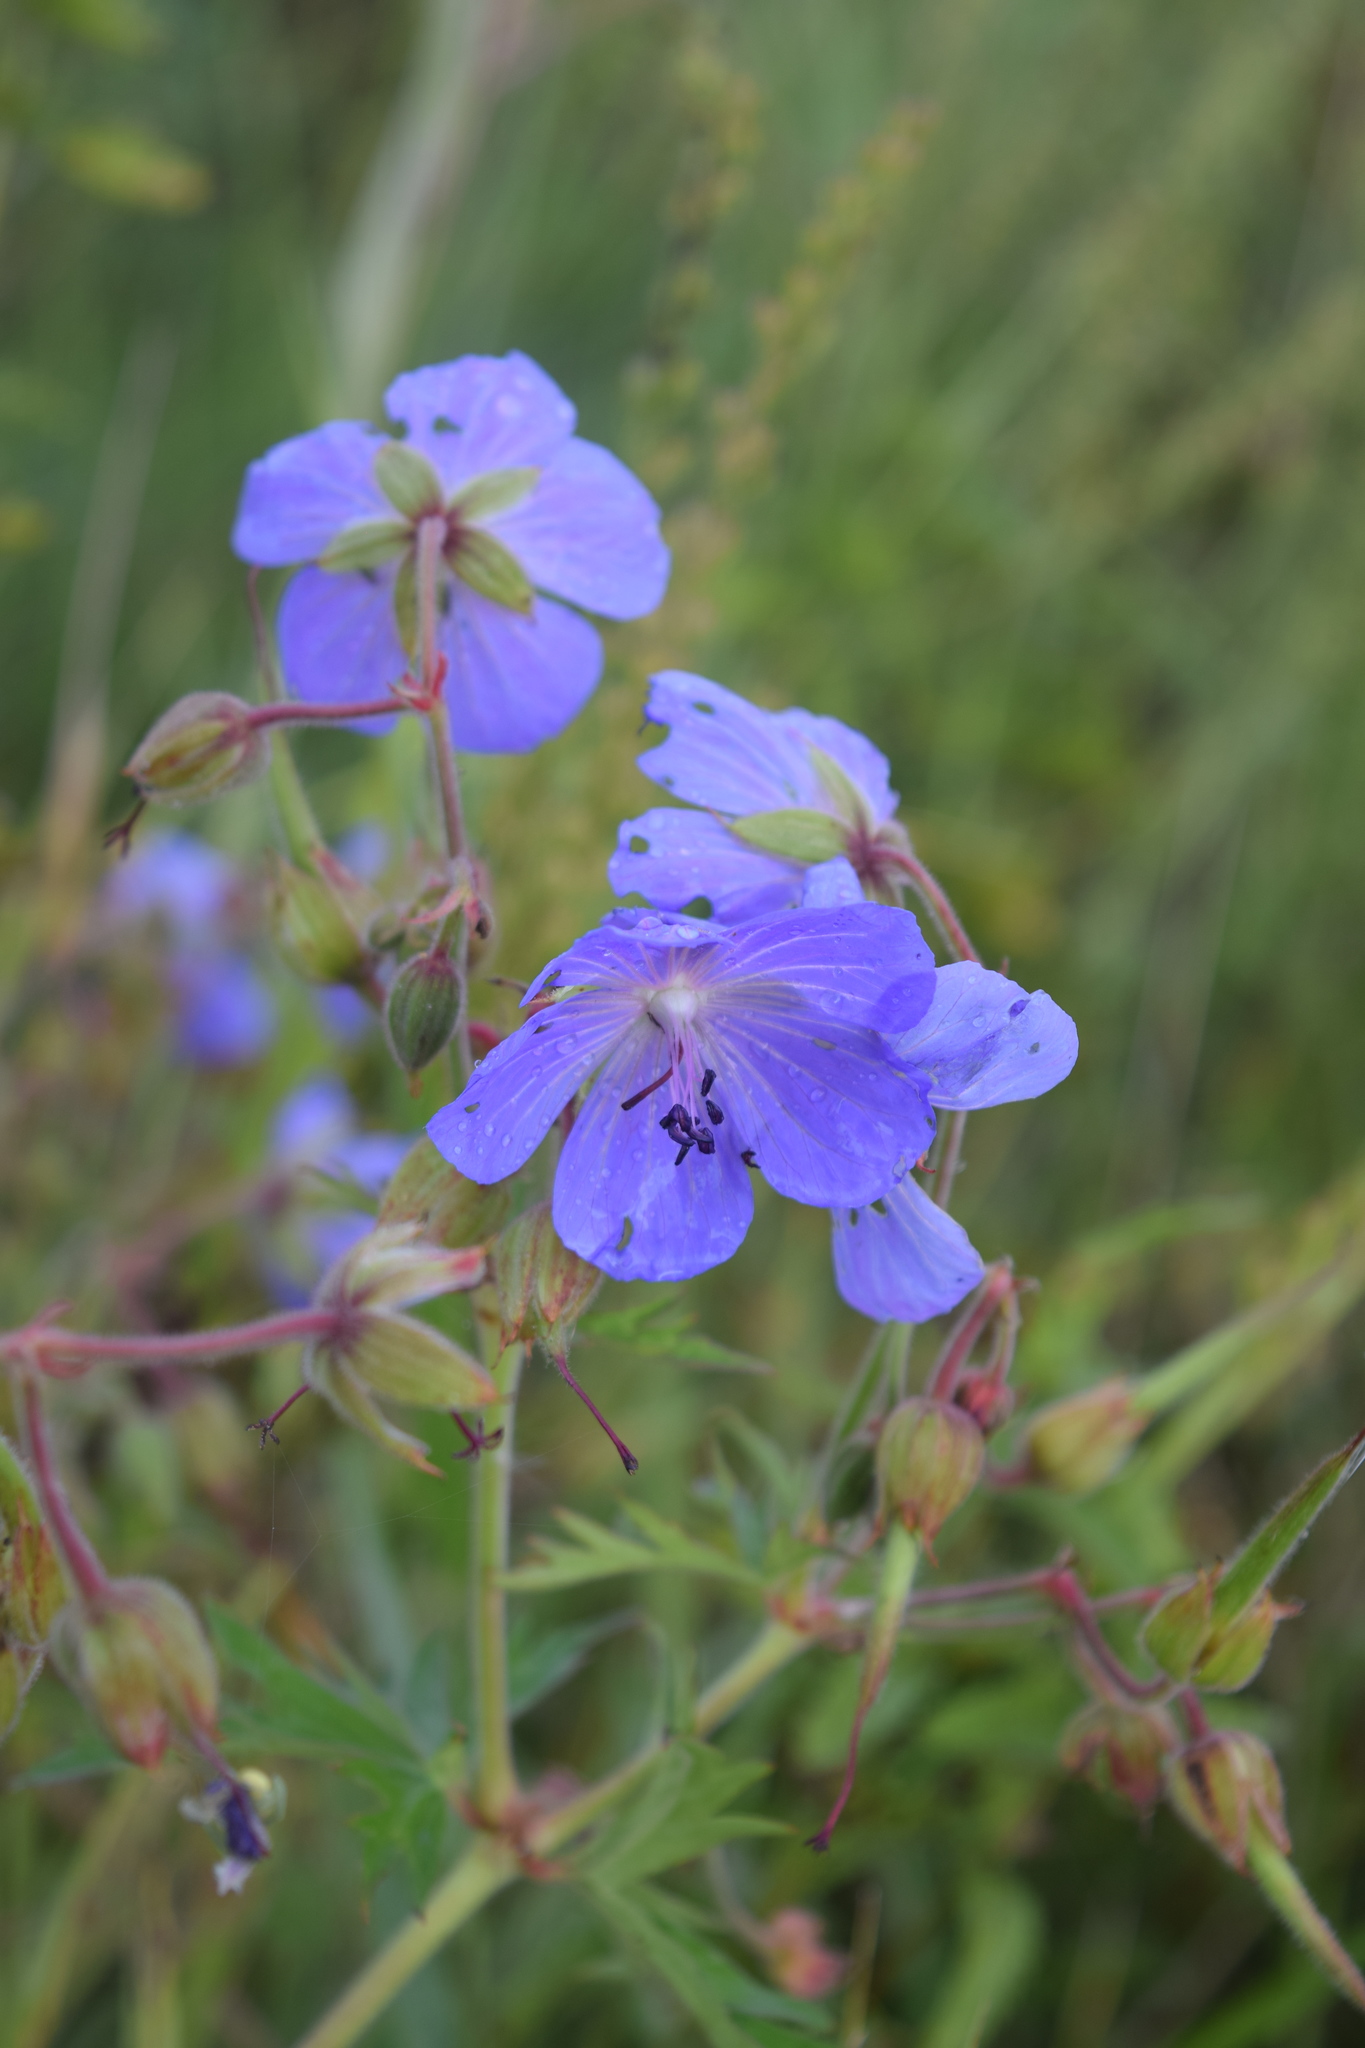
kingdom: Plantae
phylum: Tracheophyta
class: Magnoliopsida
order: Geraniales
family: Geraniaceae
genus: Geranium
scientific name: Geranium pratense
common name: Meadow crane's-bill
